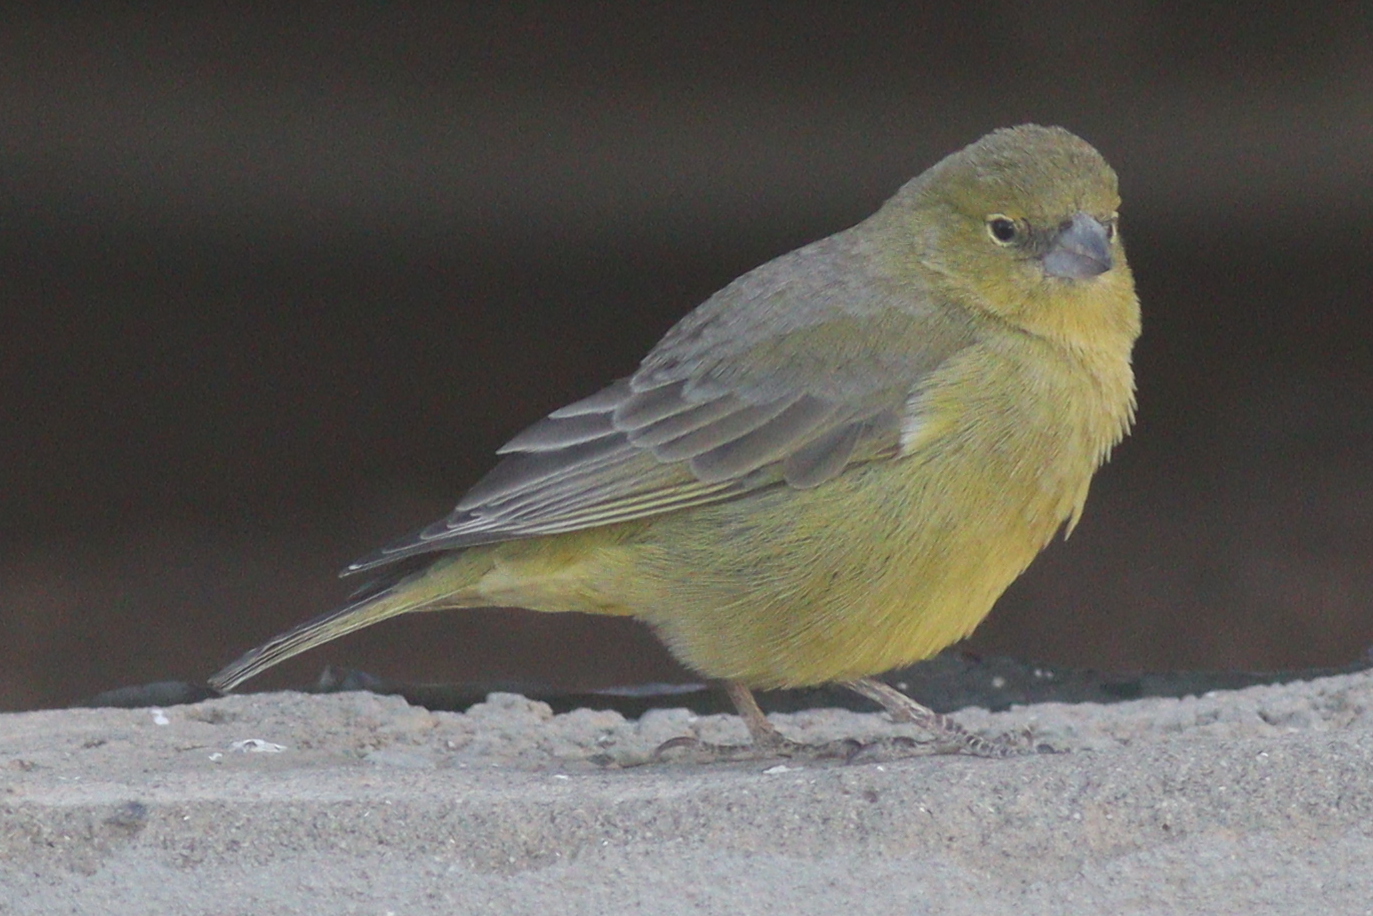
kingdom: Animalia
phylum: Chordata
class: Aves
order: Passeriformes
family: Thraupidae
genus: Sicalis
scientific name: Sicalis olivascens
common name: Greenish yellow finch
